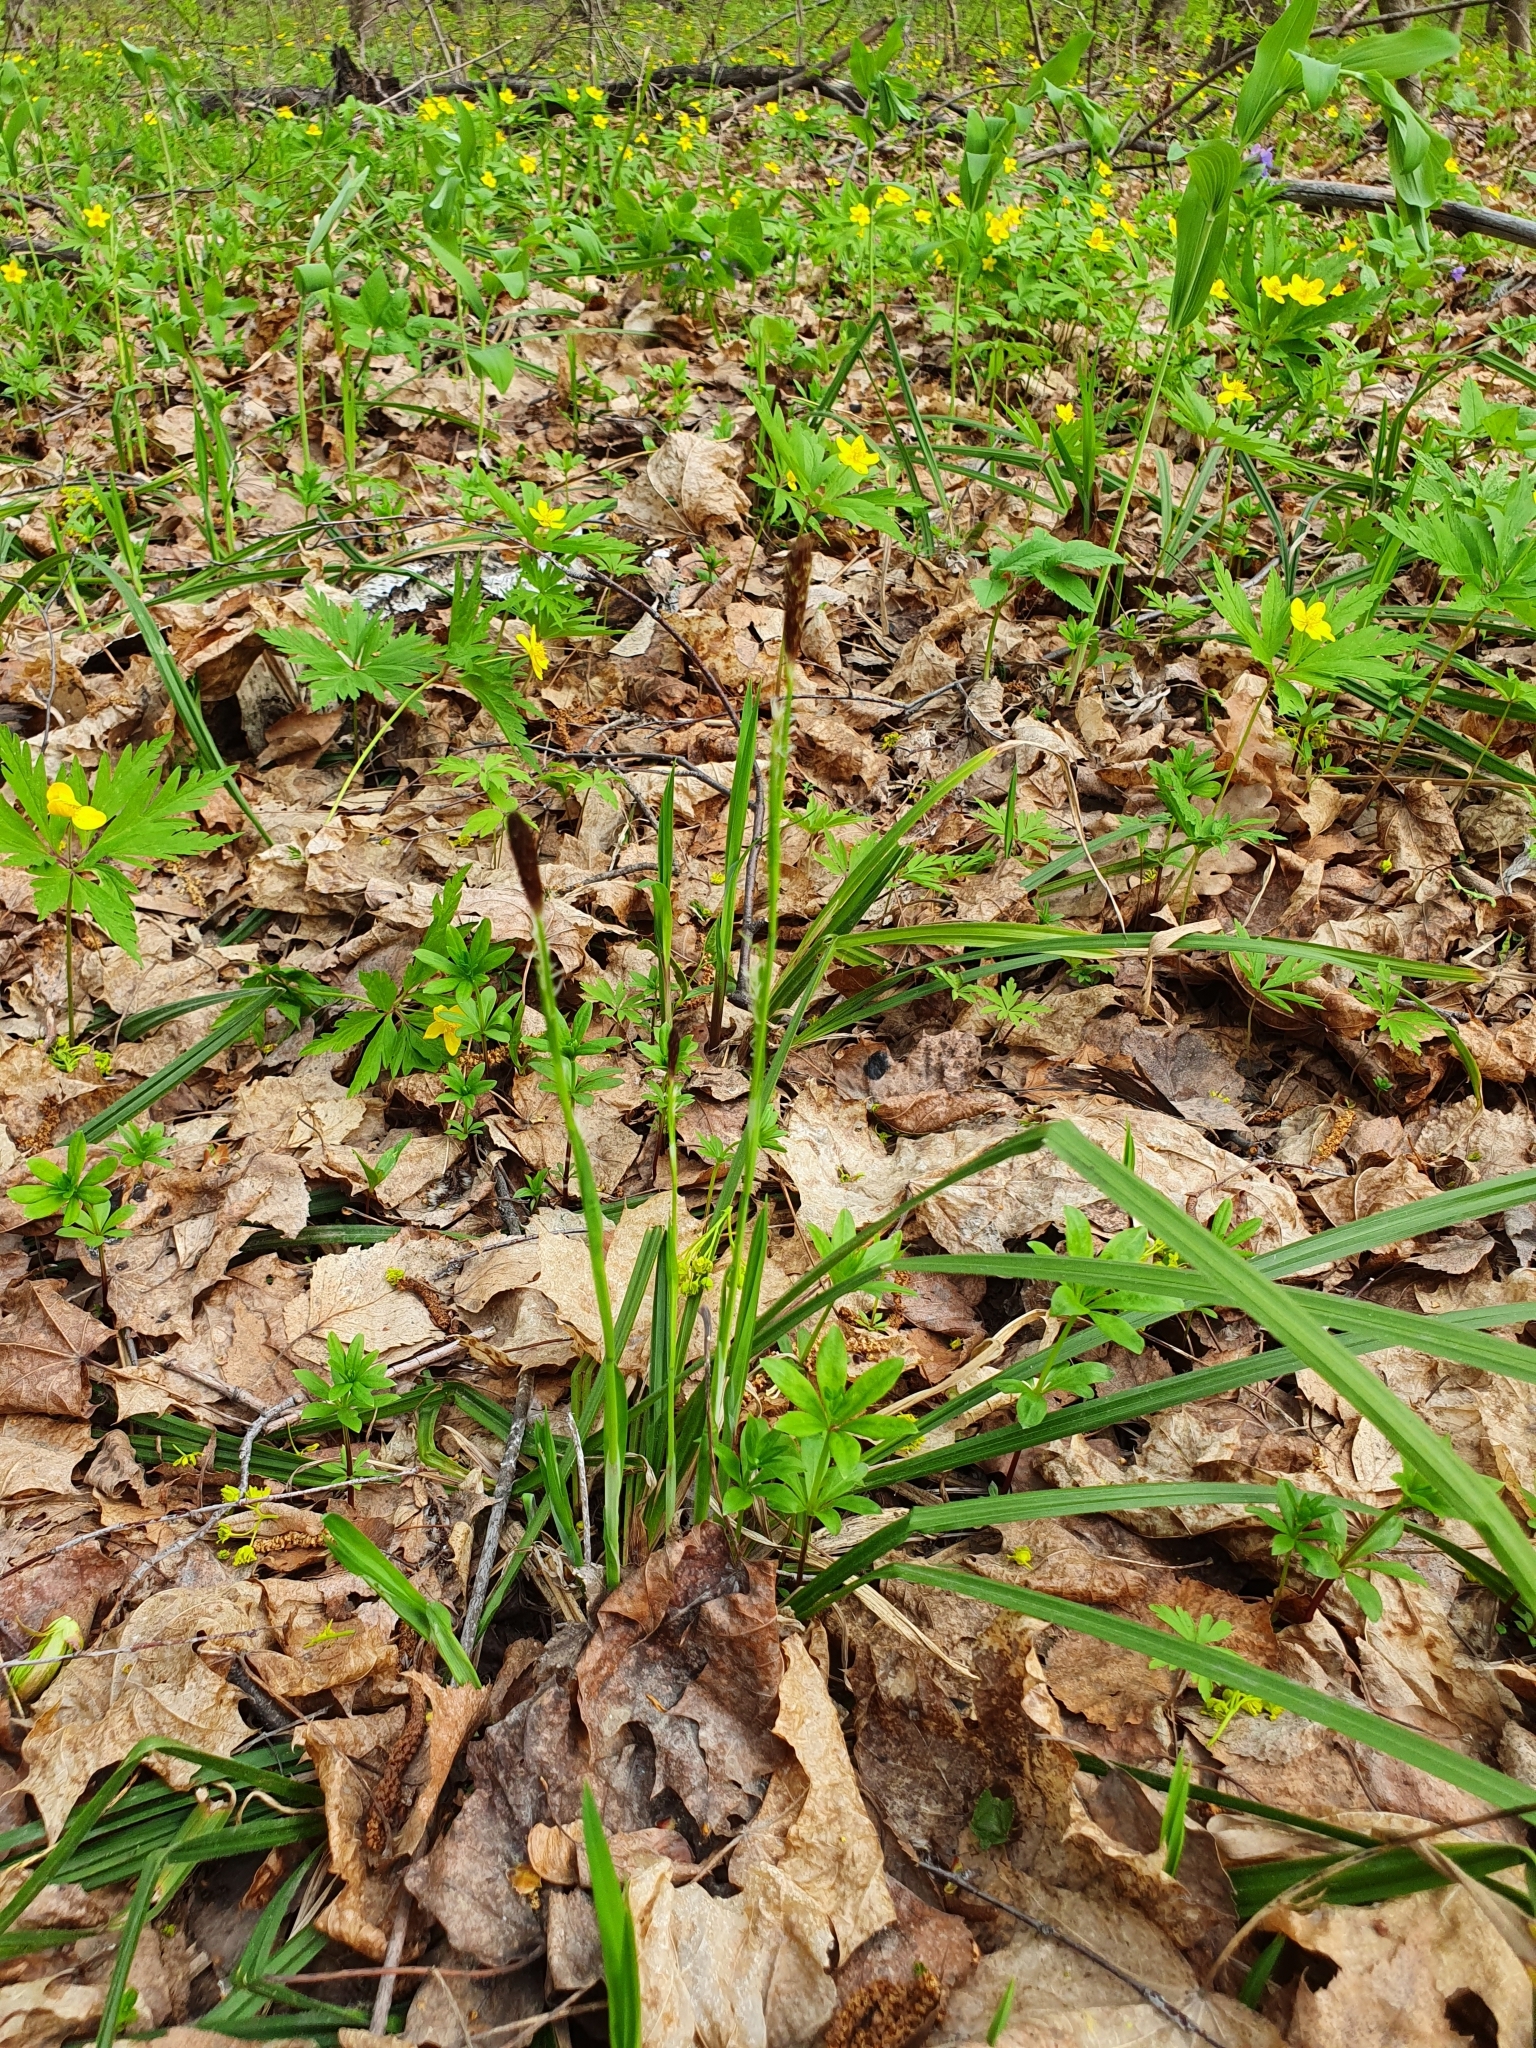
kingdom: Plantae
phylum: Tracheophyta
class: Liliopsida
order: Poales
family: Cyperaceae
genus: Carex
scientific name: Carex pilosa
